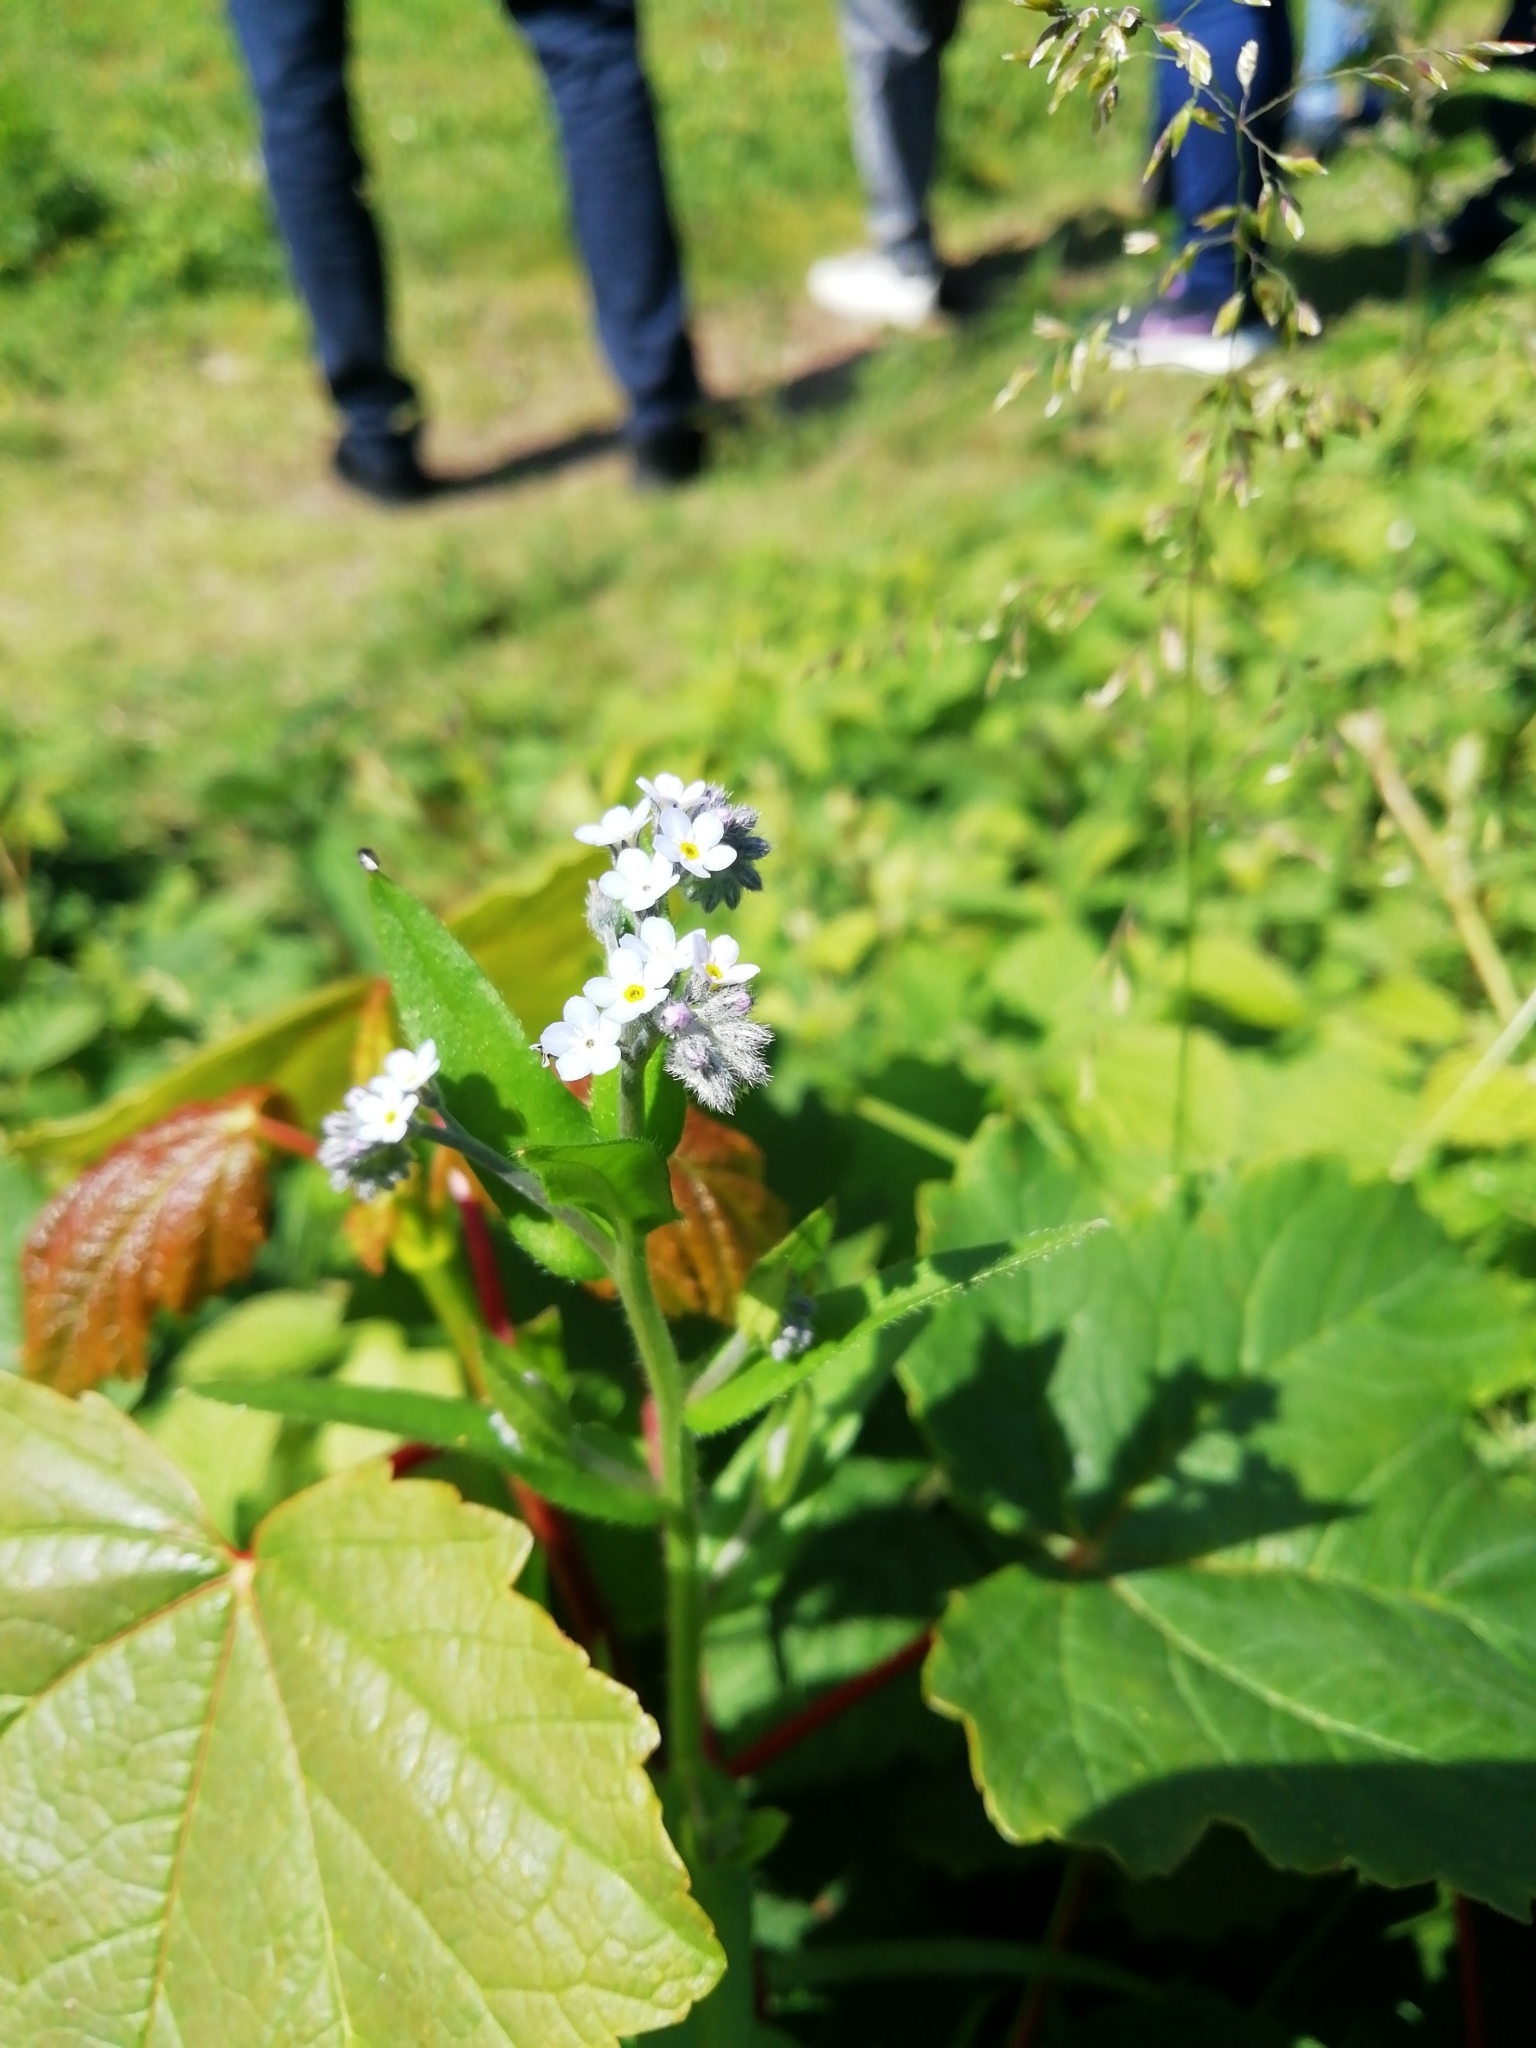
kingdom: Plantae
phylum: Tracheophyta
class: Magnoliopsida
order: Boraginales
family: Boraginaceae
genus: Myosotis
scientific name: Myosotis sylvatica
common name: Wood forget-me-not
